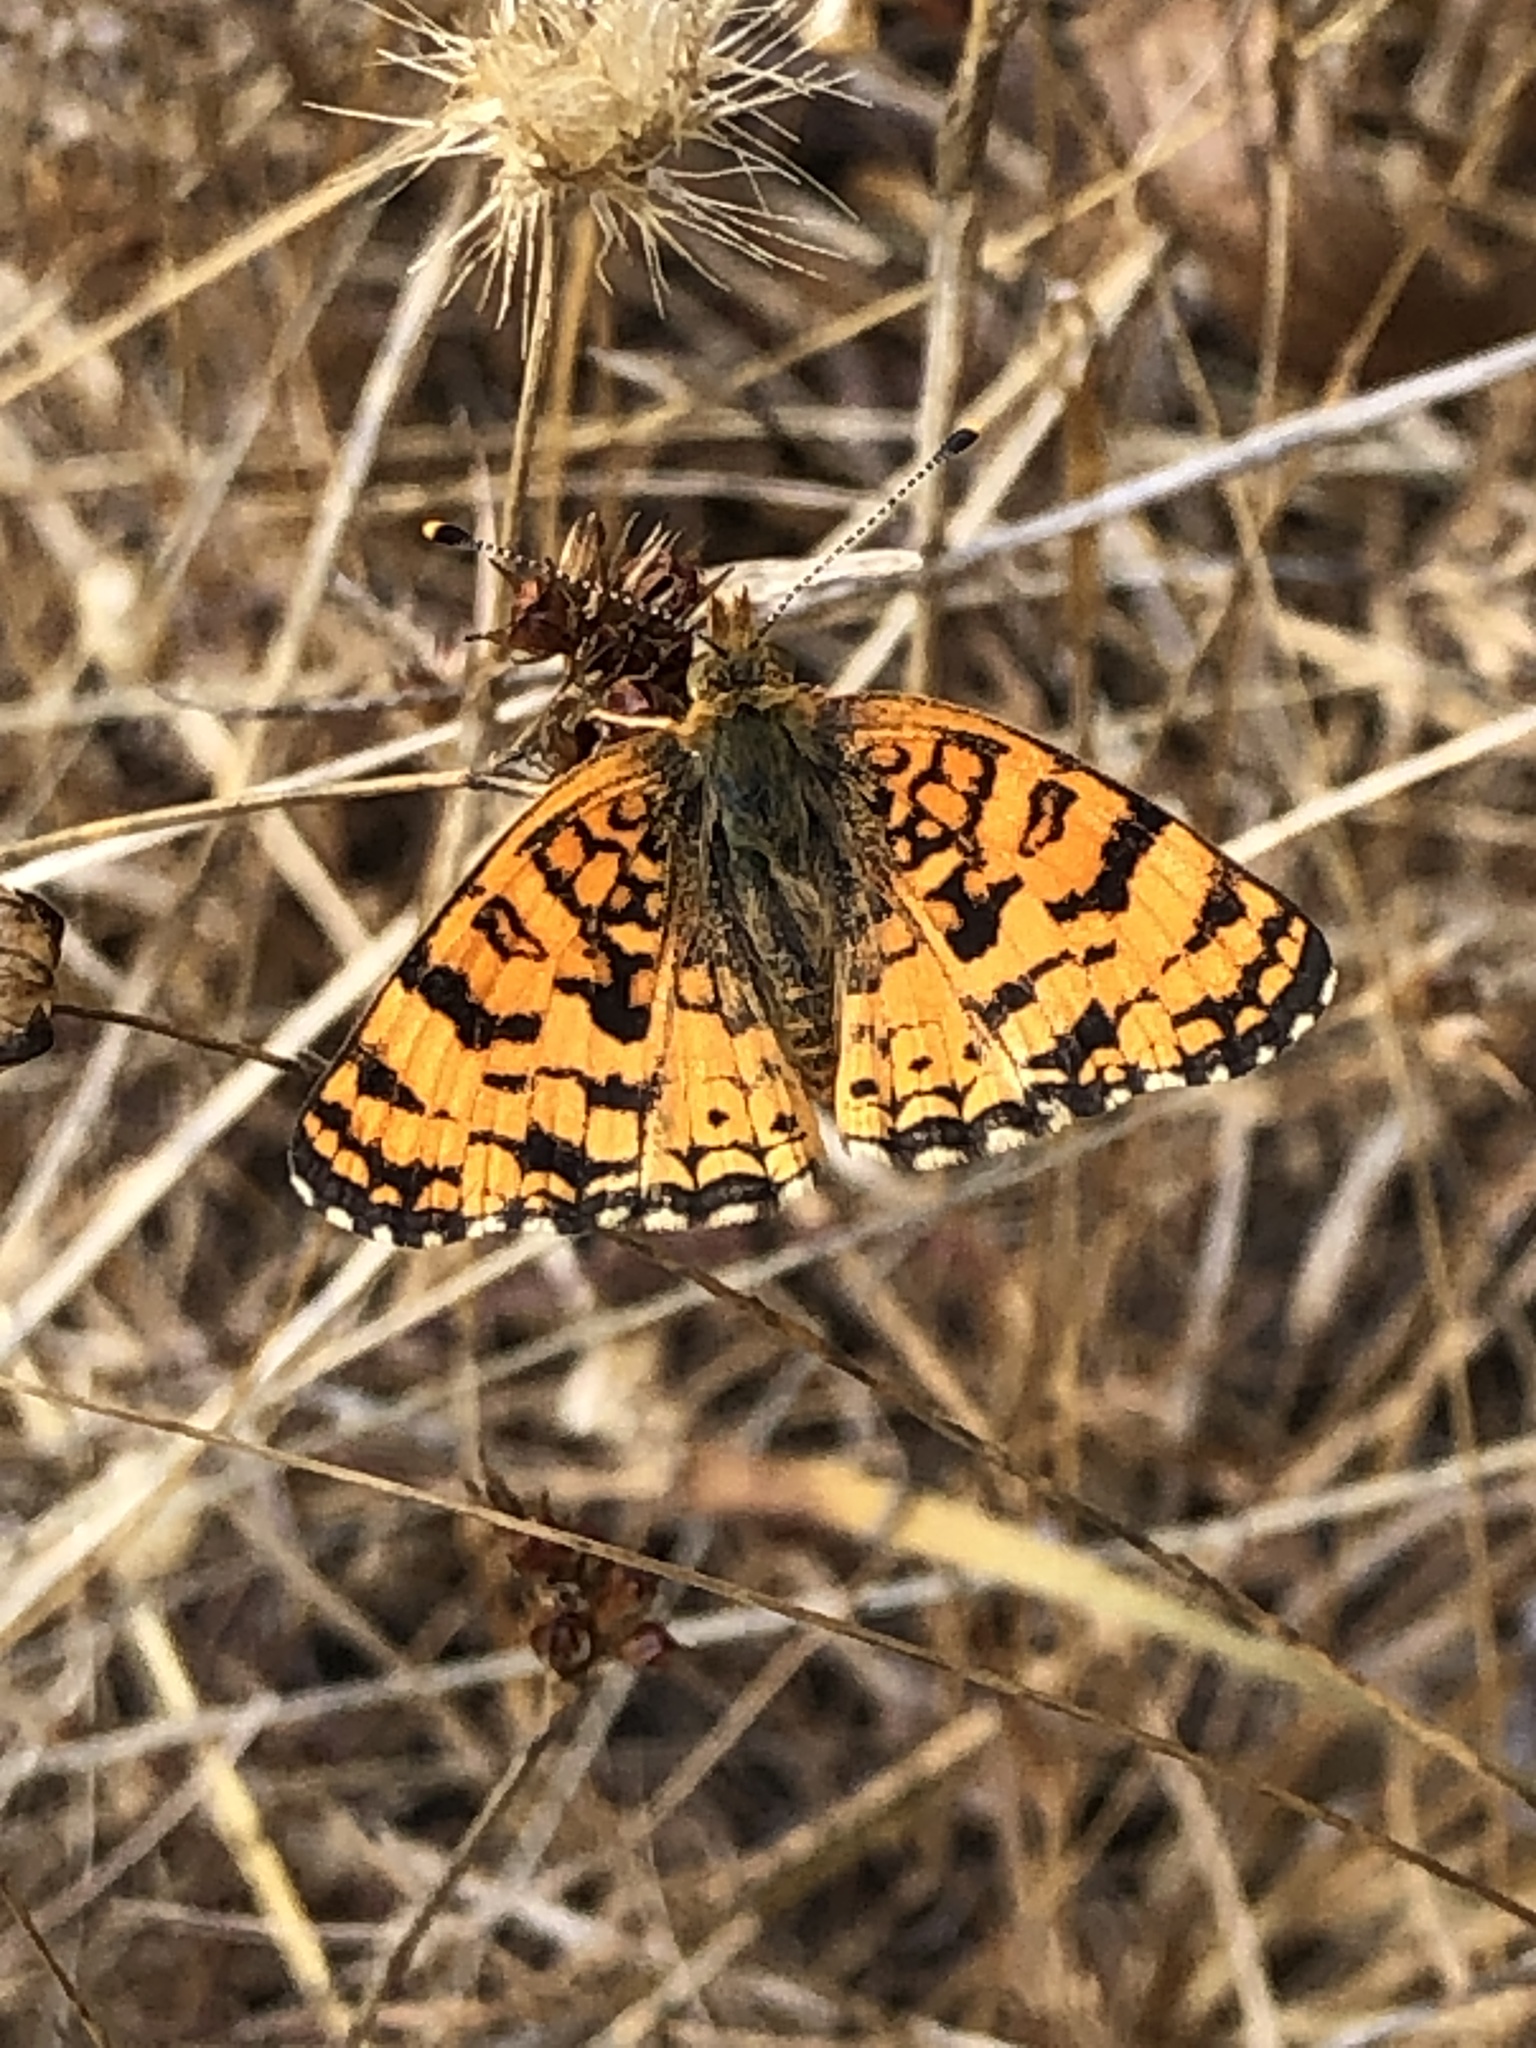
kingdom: Animalia
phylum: Arthropoda
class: Insecta
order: Lepidoptera
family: Nymphalidae
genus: Eresia
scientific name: Eresia aveyrona
